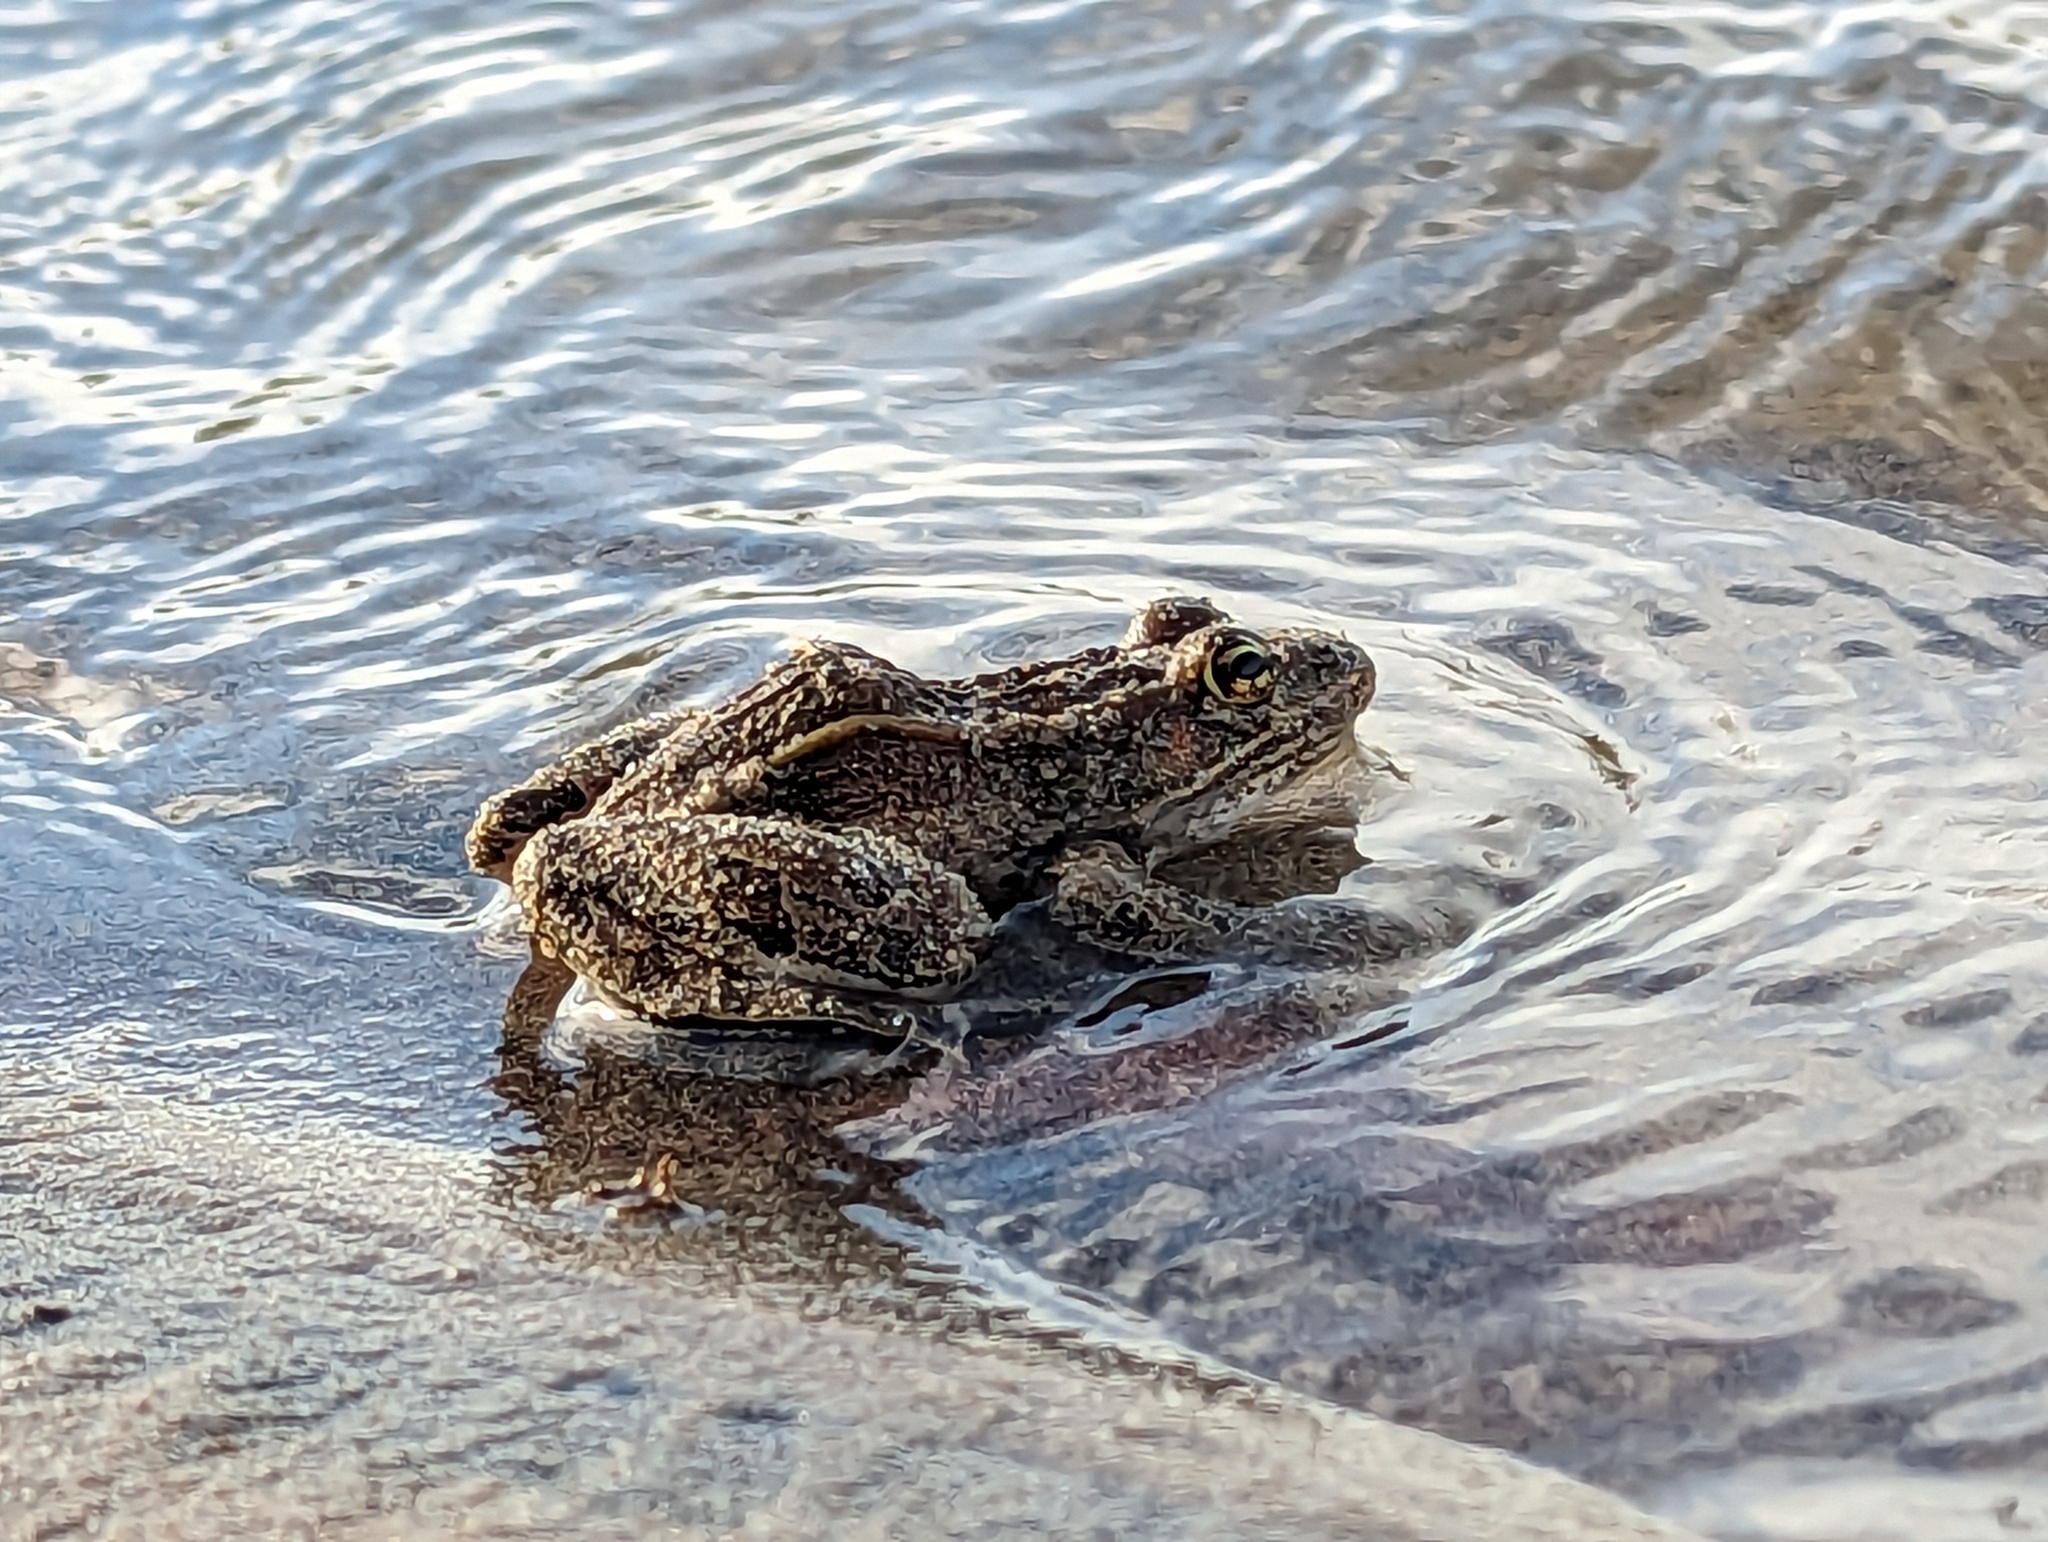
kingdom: Animalia
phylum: Chordata
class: Amphibia
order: Anura
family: Ranidae
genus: Lithobates
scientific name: Lithobates pipiens
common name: Northern leopard frog
